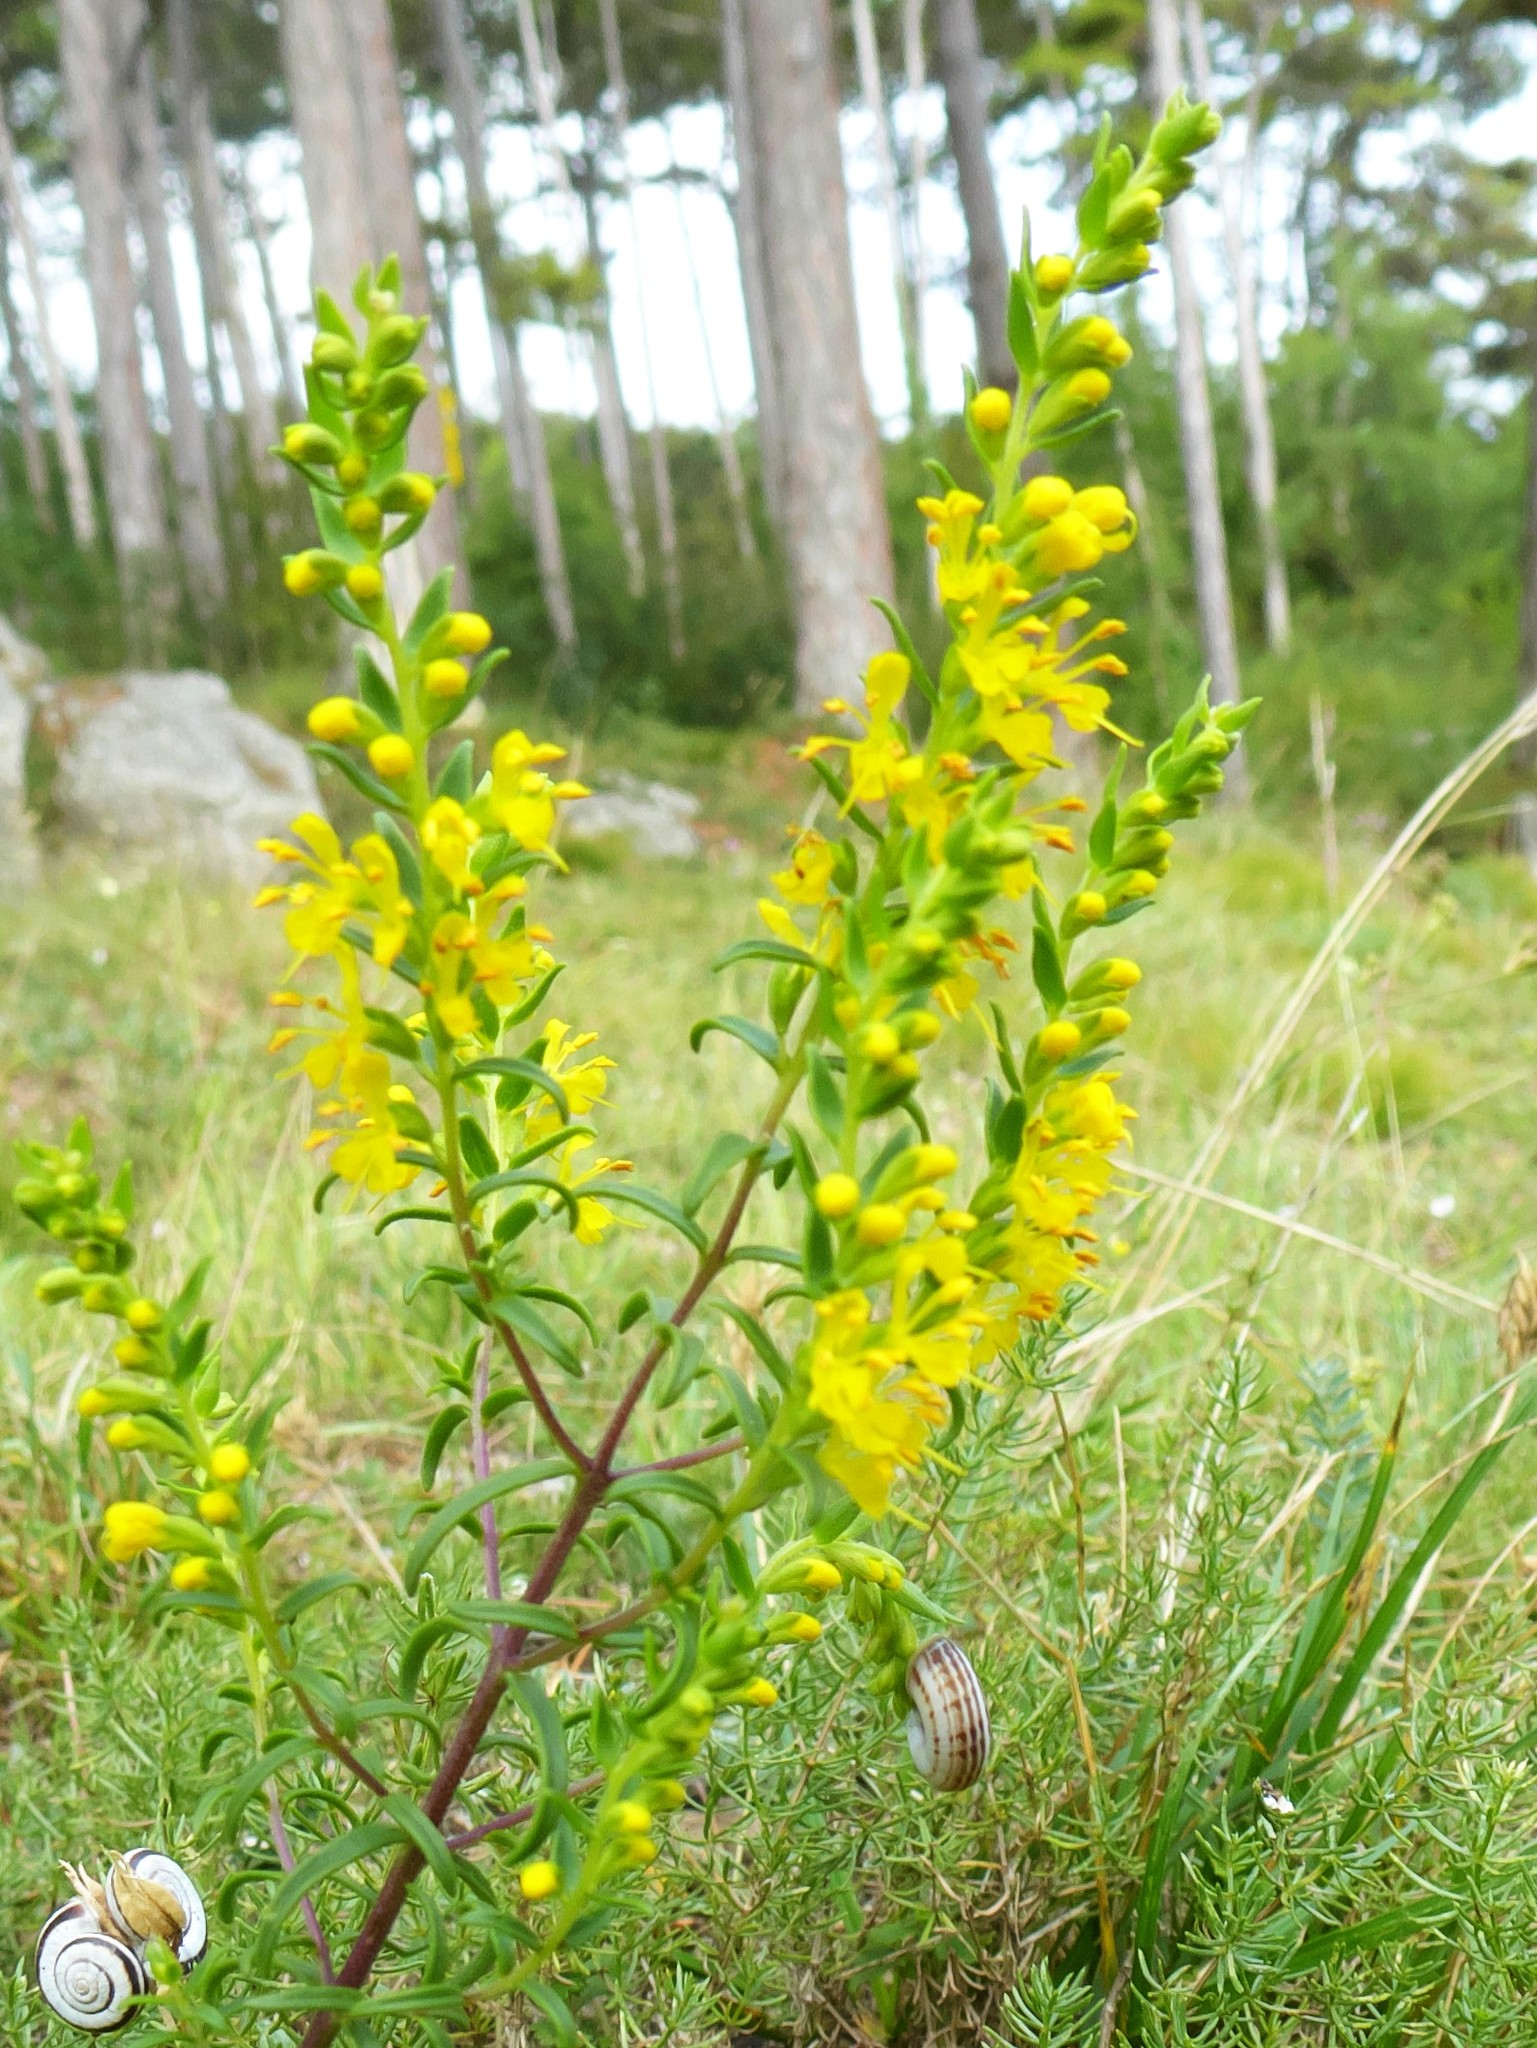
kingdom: Plantae
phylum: Tracheophyta
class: Magnoliopsida
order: Lamiales
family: Orobanchaceae
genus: Odontites
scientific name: Odontites luteus
